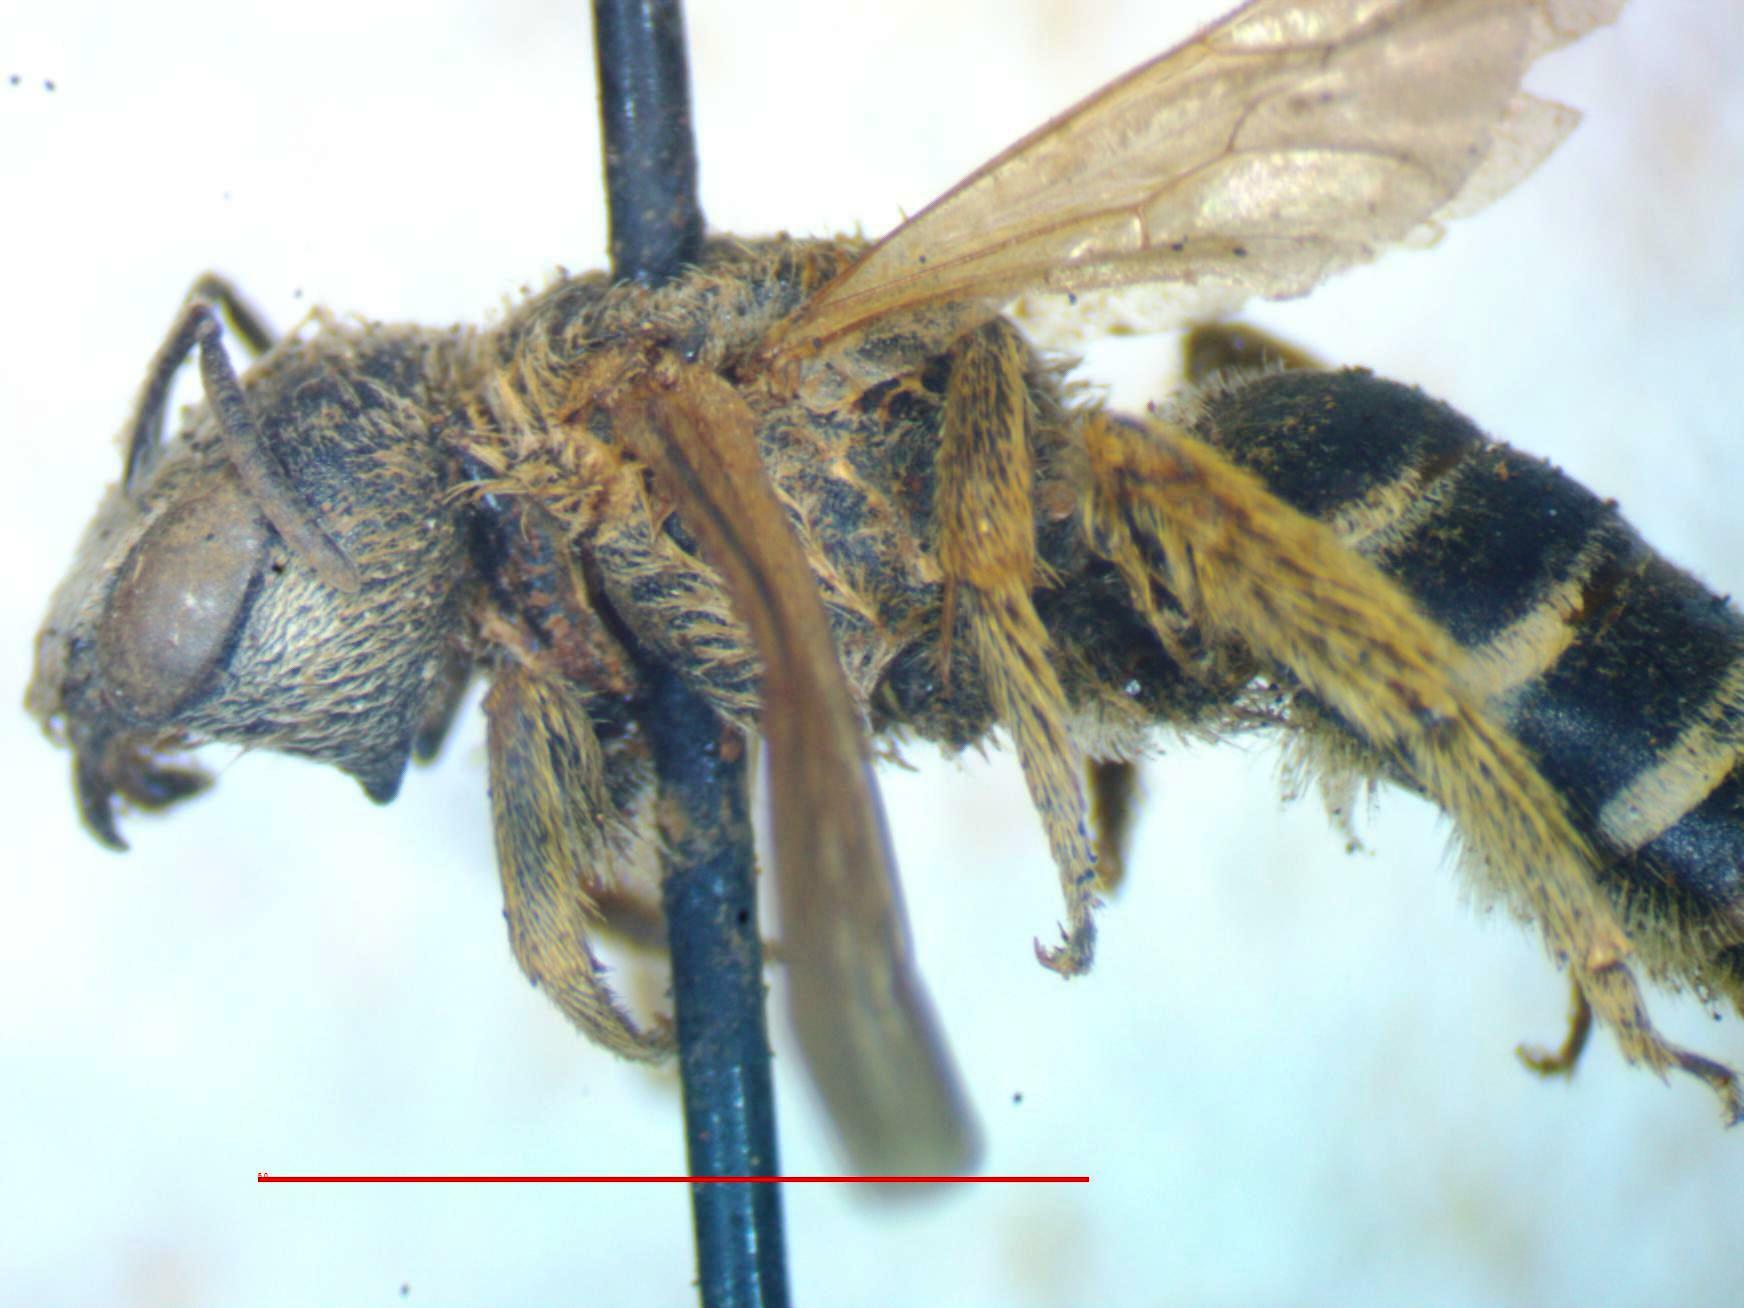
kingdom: Animalia
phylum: Arthropoda
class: Insecta
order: Hymenoptera
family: Halictidae
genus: Halictus
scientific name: Halictus ligatus
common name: Ligated furrow bee
